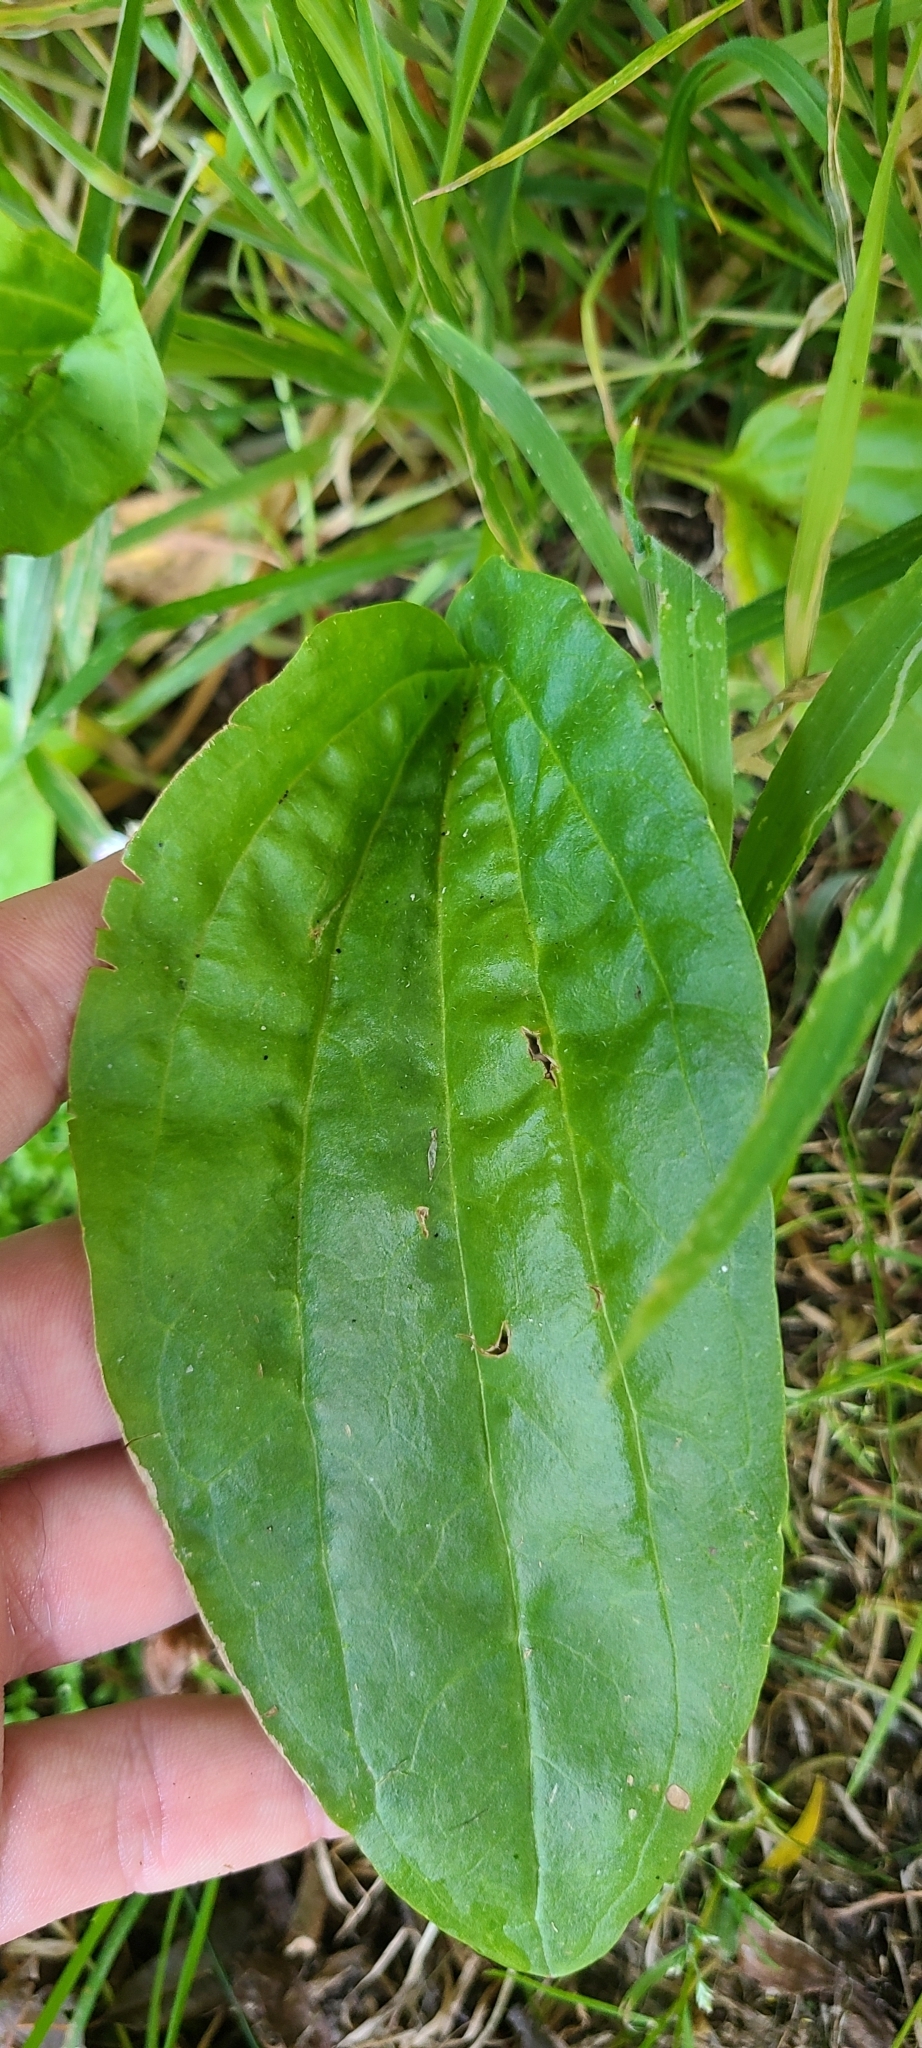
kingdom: Plantae
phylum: Tracheophyta
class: Magnoliopsida
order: Lamiales
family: Plantaginaceae
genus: Plantago
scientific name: Plantago major
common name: Common plantain
